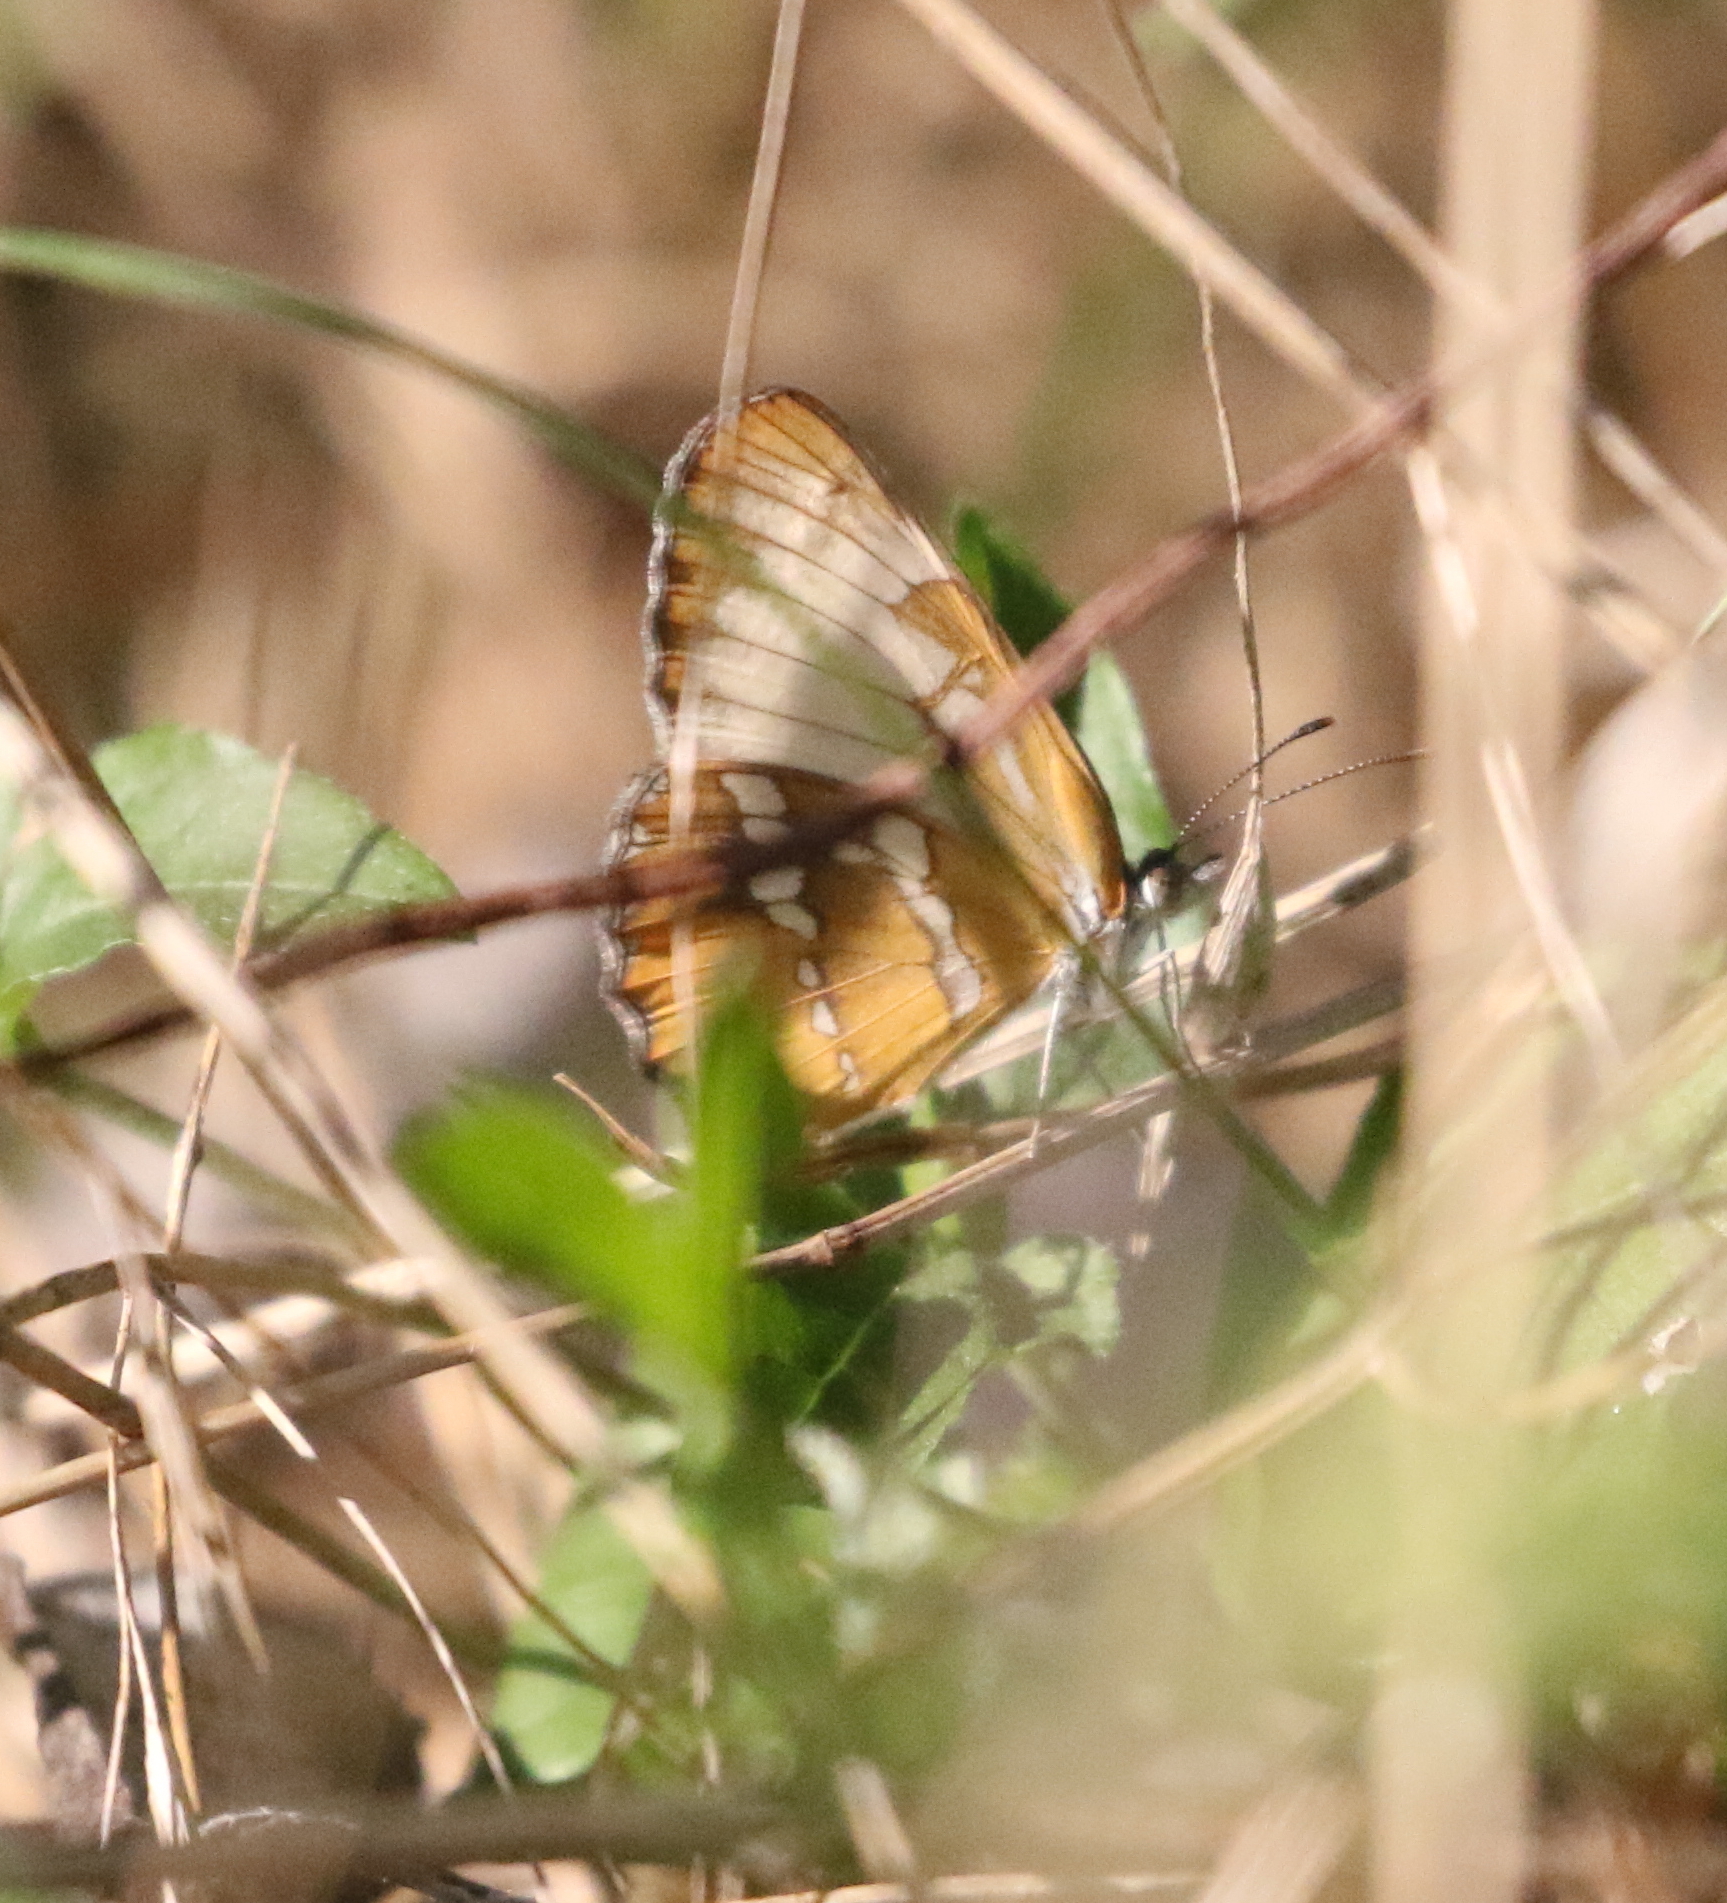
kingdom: Animalia
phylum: Arthropoda
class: Insecta
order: Lepidoptera
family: Nymphalidae
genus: Mestra
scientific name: Mestra amymone
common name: Common mestra
